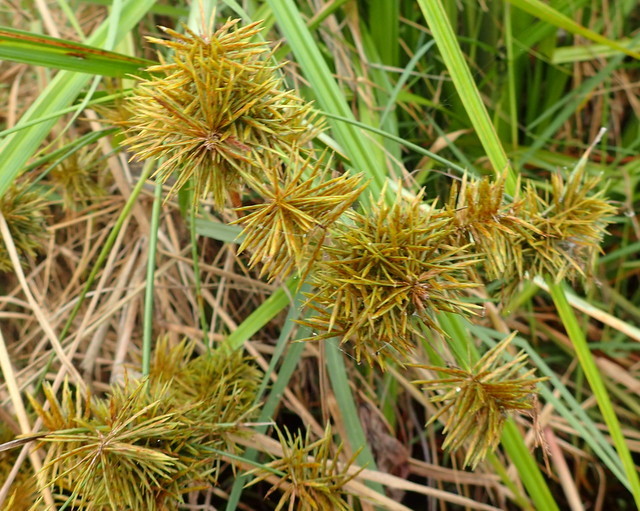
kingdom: Plantae
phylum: Tracheophyta
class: Liliopsida
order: Poales
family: Cyperaceae
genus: Cyperus
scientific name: Cyperus odoratus
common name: Fragrant flatsedge
